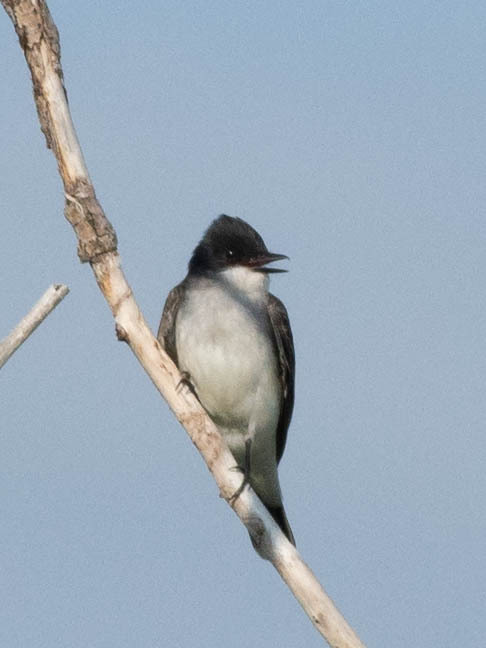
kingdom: Animalia
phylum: Chordata
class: Aves
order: Passeriformes
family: Tyrannidae
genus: Tyrannus
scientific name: Tyrannus tyrannus
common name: Eastern kingbird
